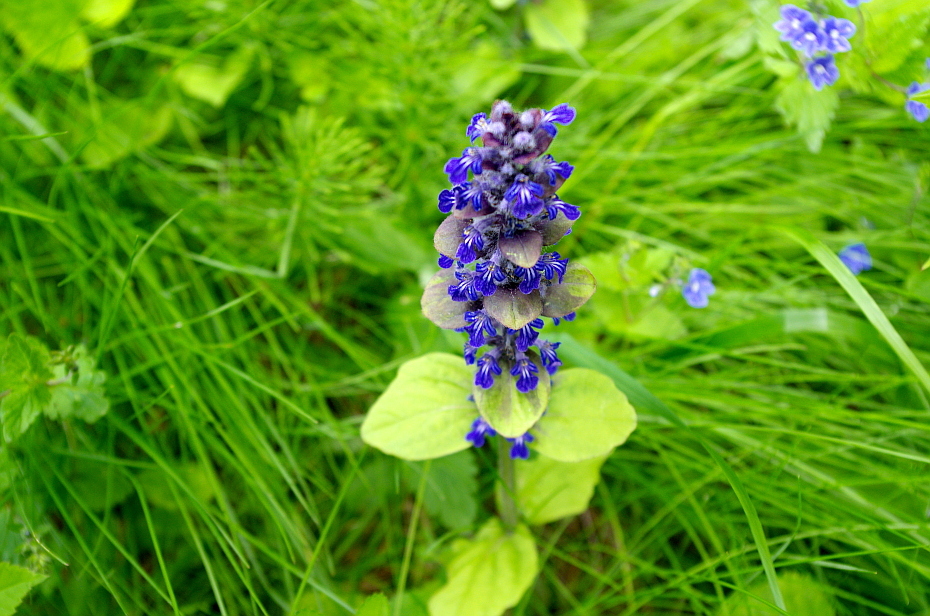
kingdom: Plantae
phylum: Tracheophyta
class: Magnoliopsida
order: Lamiales
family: Lamiaceae
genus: Ajuga
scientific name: Ajuga reptans
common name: Bugle
